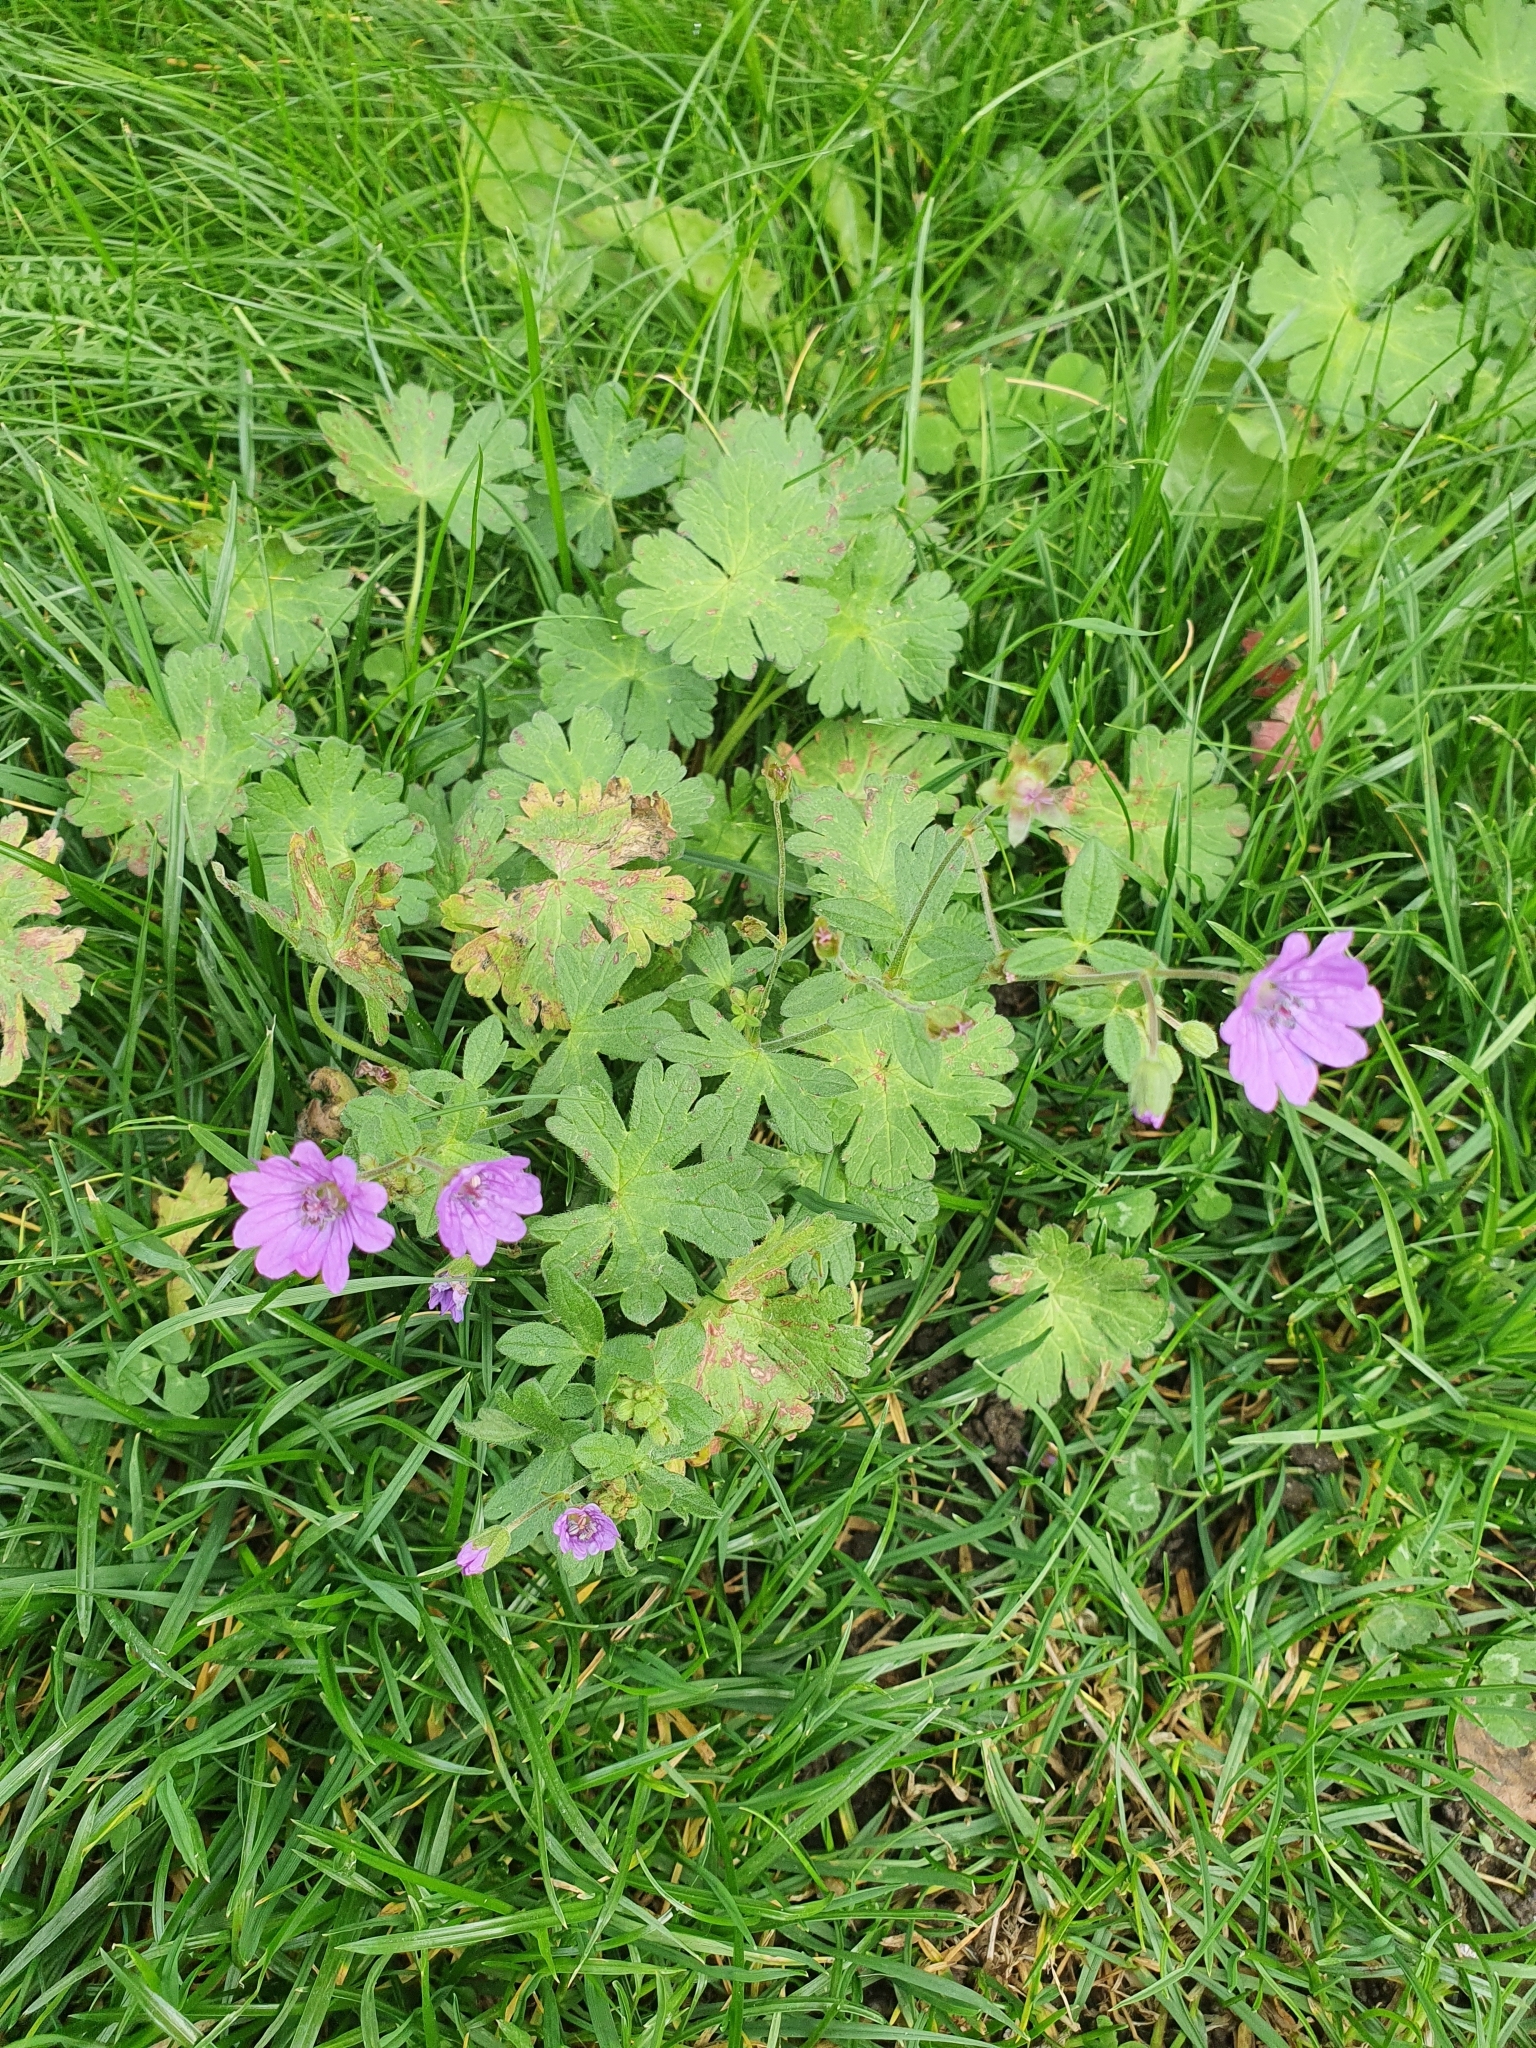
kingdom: Plantae
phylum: Tracheophyta
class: Magnoliopsida
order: Geraniales
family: Geraniaceae
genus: Geranium
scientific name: Geranium pyrenaicum
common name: Hedgerow crane's-bill
